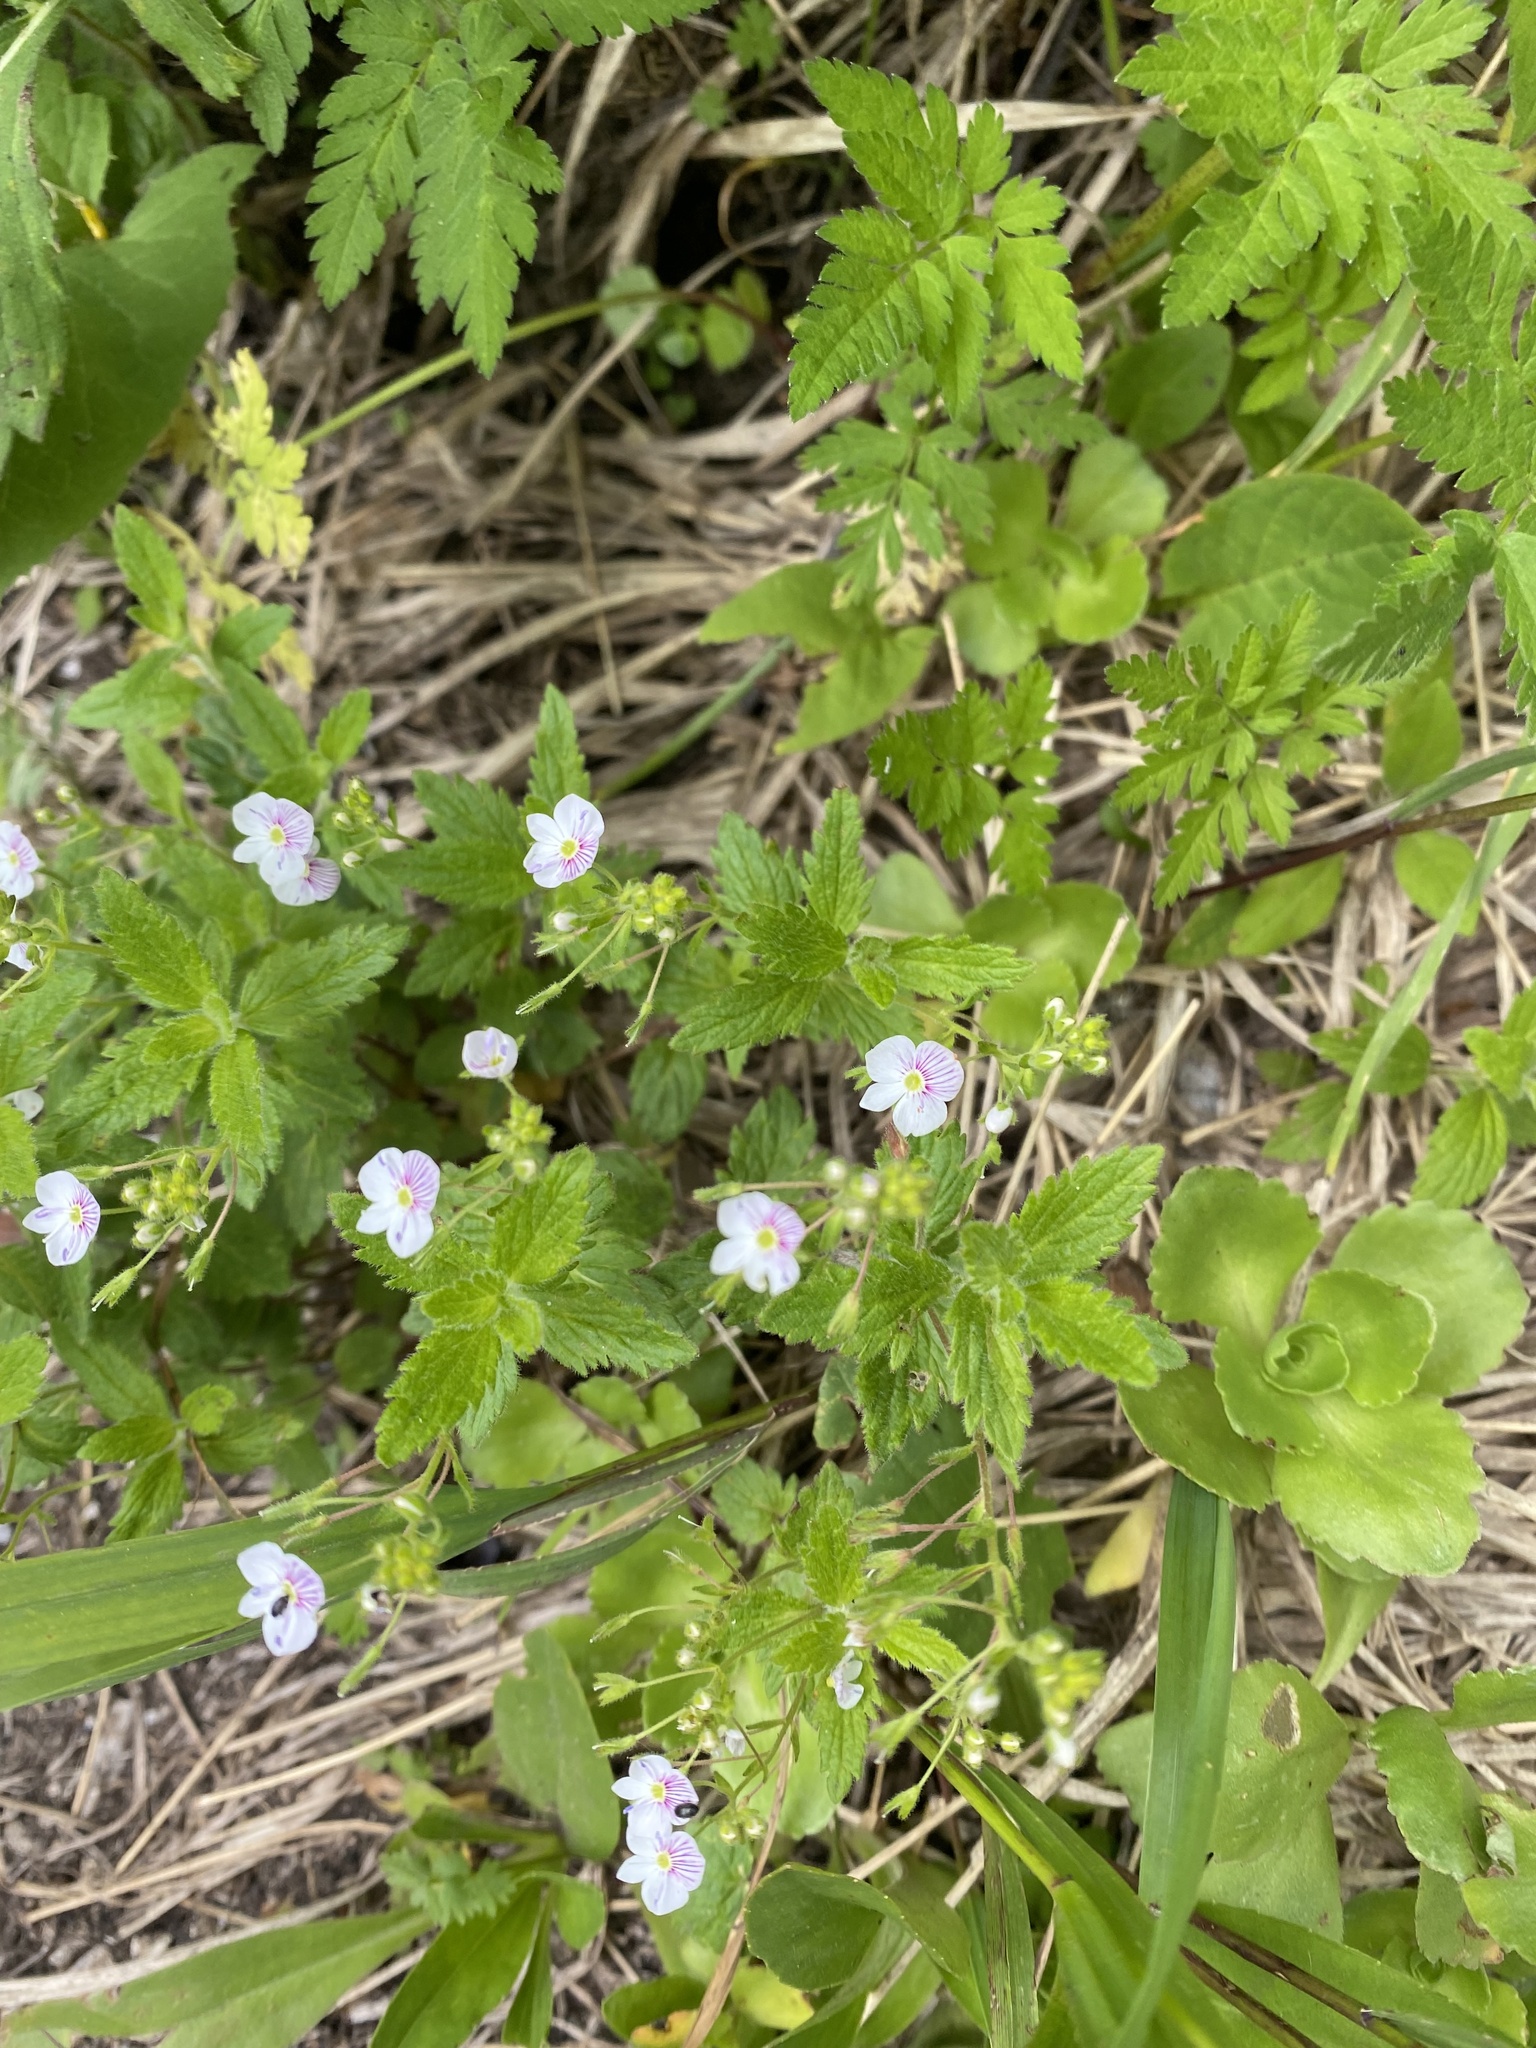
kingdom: Plantae
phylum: Tracheophyta
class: Magnoliopsida
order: Lamiales
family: Plantaginaceae
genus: Veronica
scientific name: Veronica peduncularis
